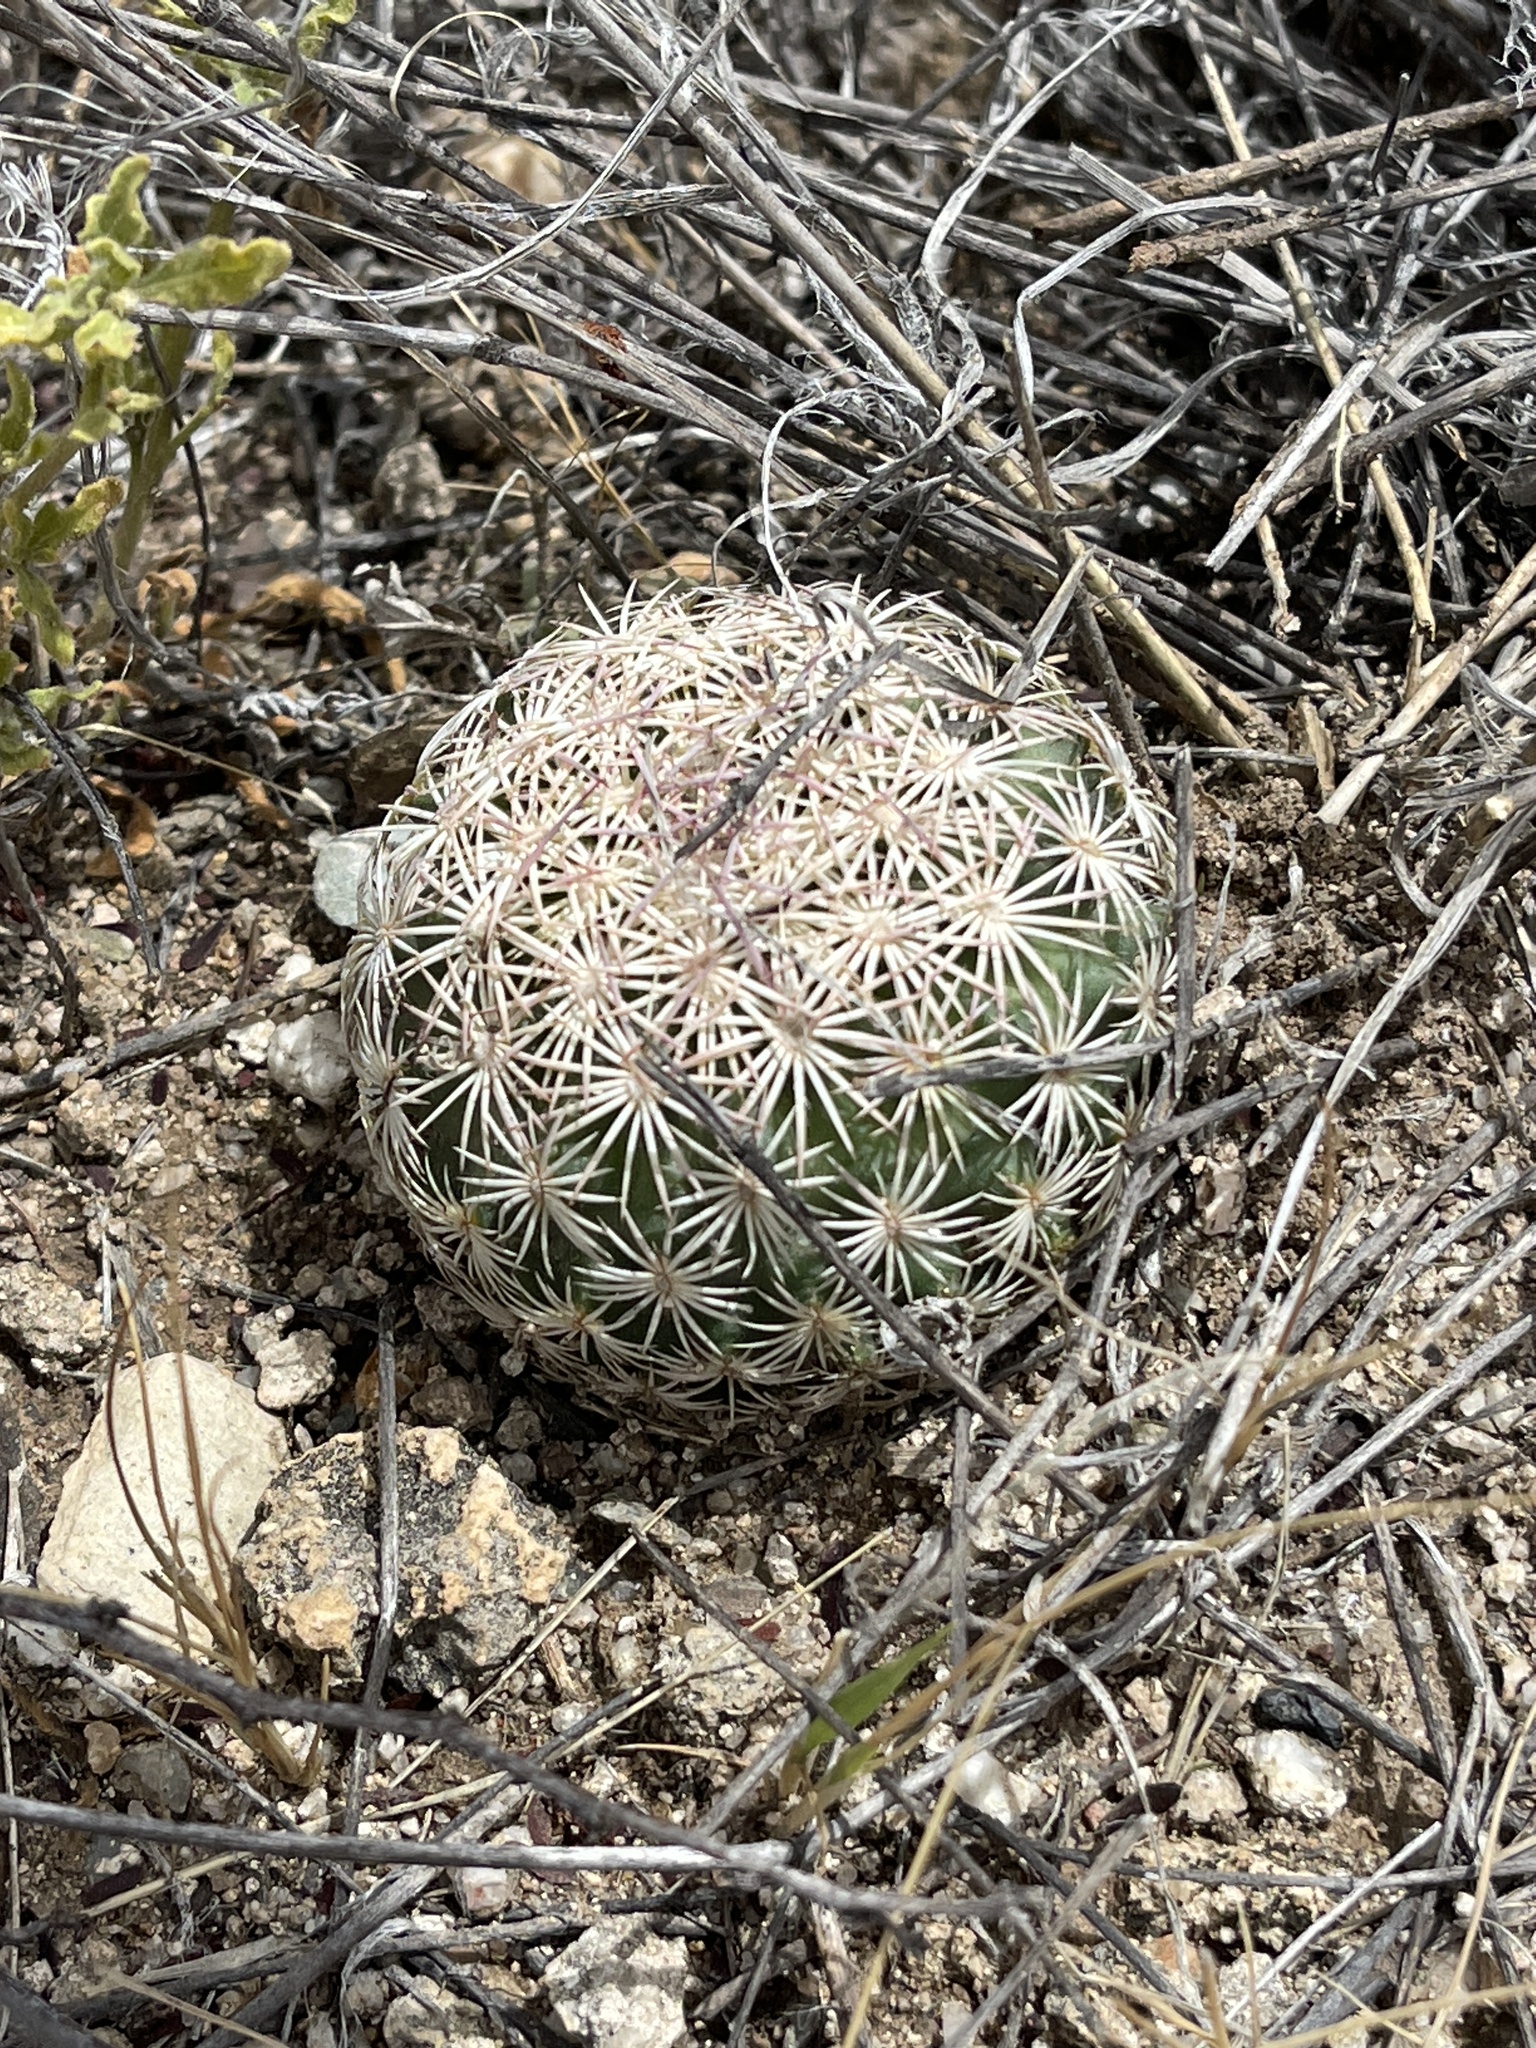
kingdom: Plantae
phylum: Tracheophyta
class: Magnoliopsida
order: Caryophyllales
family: Cactaceae
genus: Sclerocactus
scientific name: Sclerocactus johnsonii
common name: Eight-spine fishhook cactus
